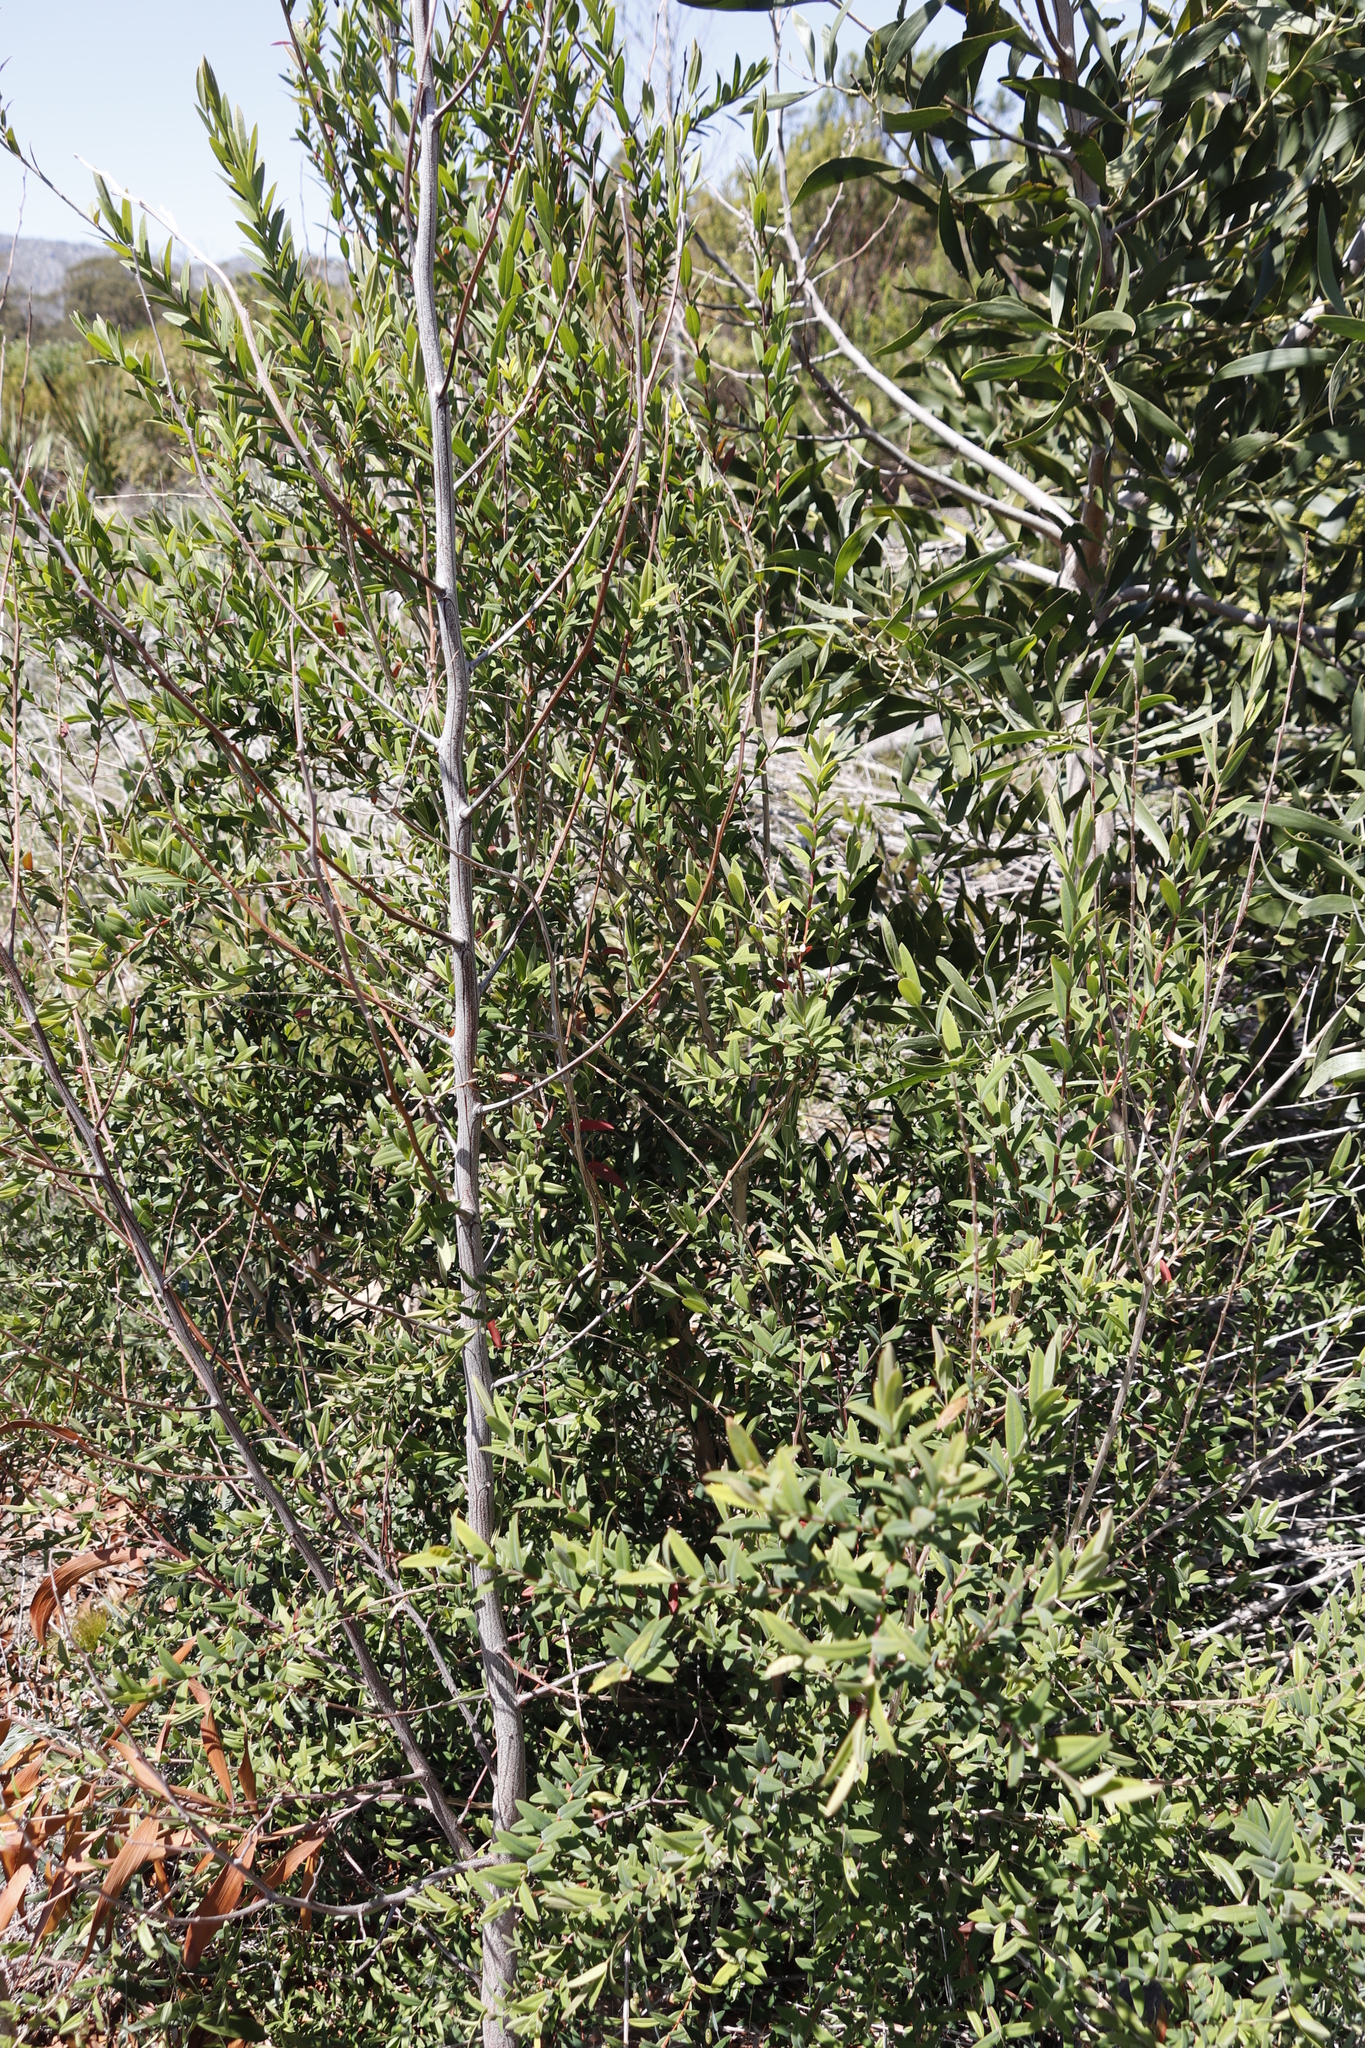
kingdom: Plantae
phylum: Tracheophyta
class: Magnoliopsida
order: Myrtales
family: Myrtaceae
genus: Melaleuca
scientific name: Melaleuca hypericifolia
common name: Red honey myrtle
